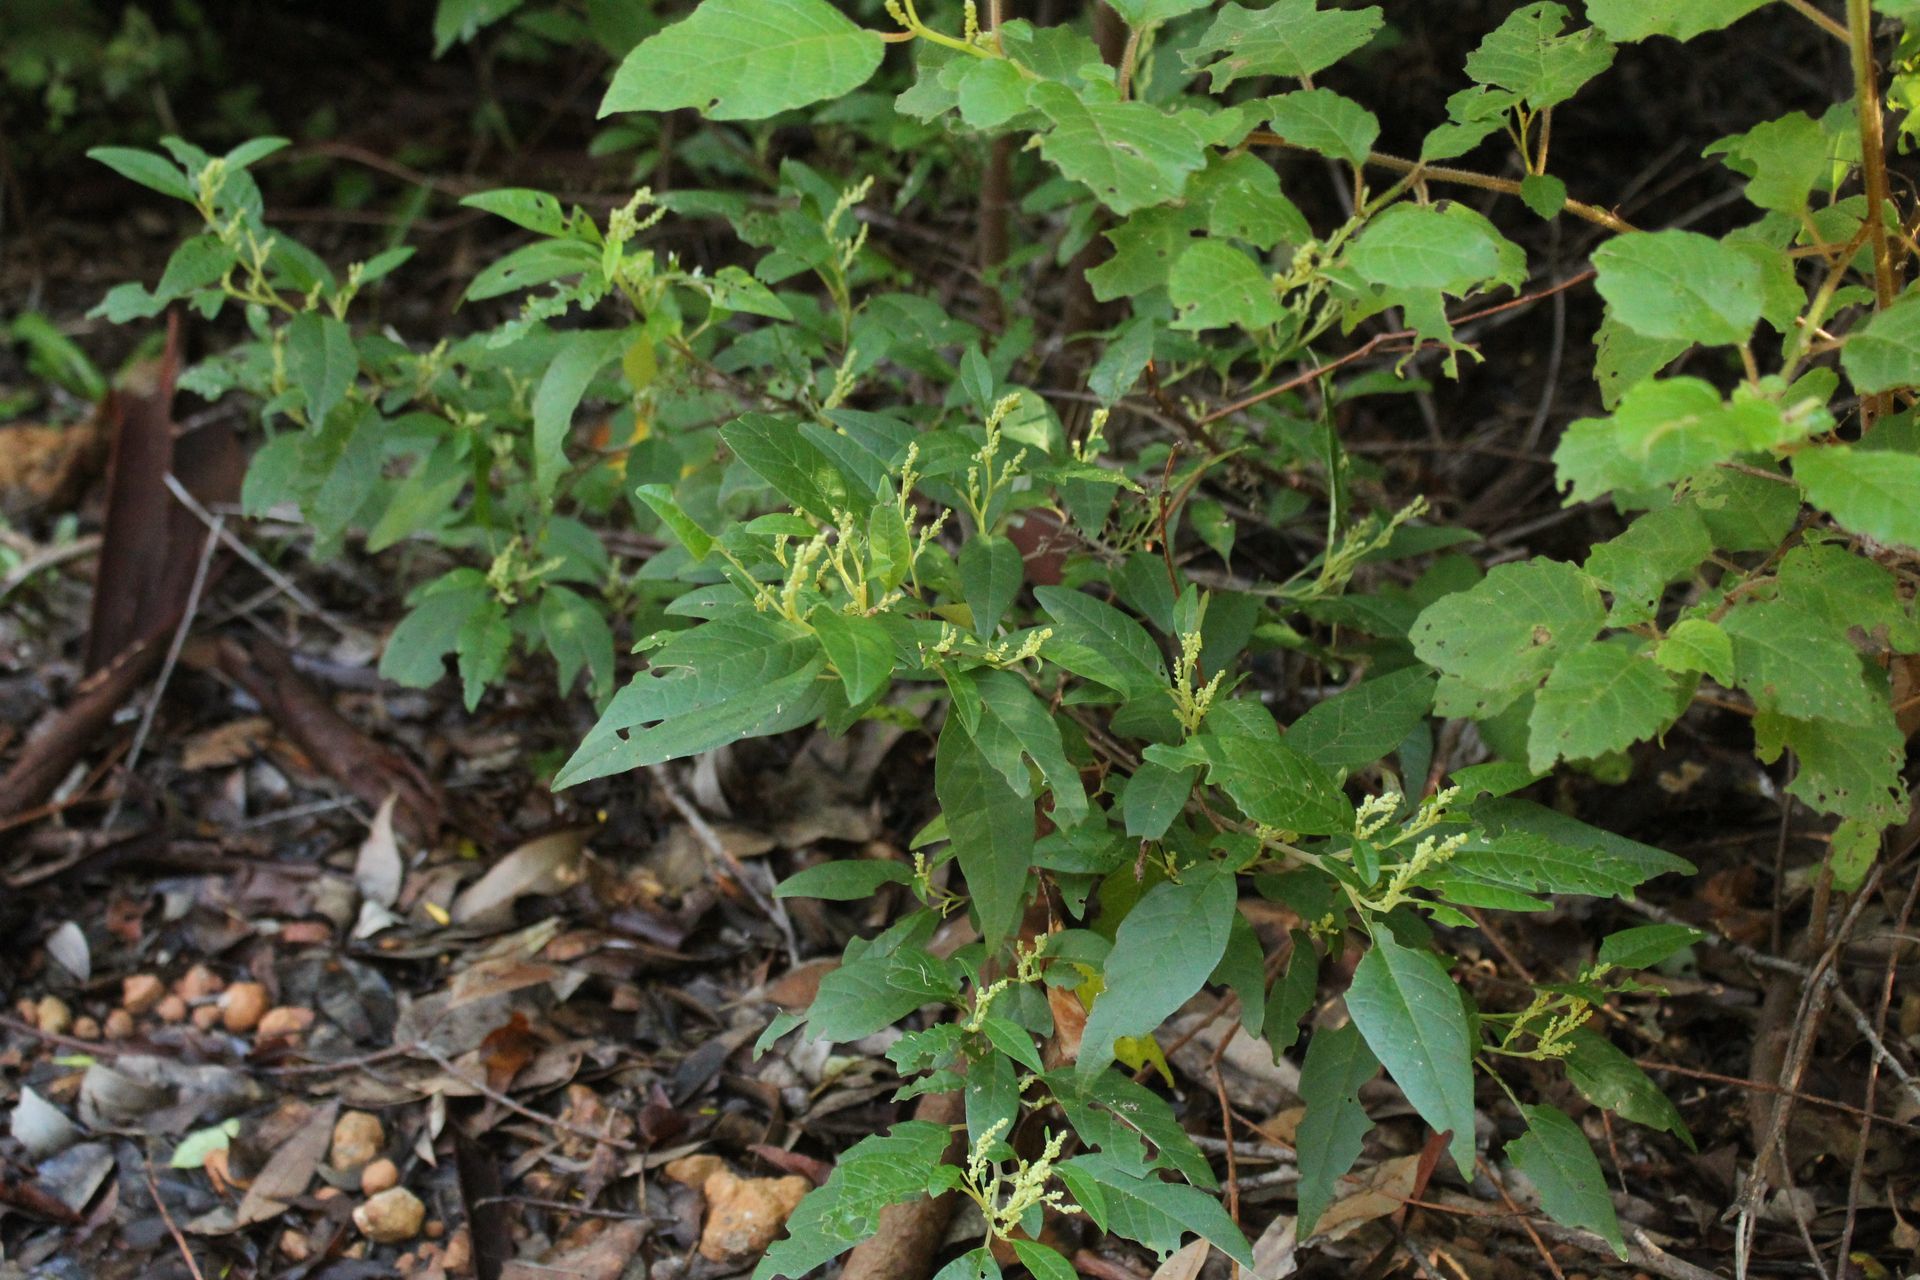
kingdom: Plantae
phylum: Tracheophyta
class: Magnoliopsida
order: Rosales
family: Rhamnaceae
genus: Trymalium
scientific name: Trymalium odoratissimum
